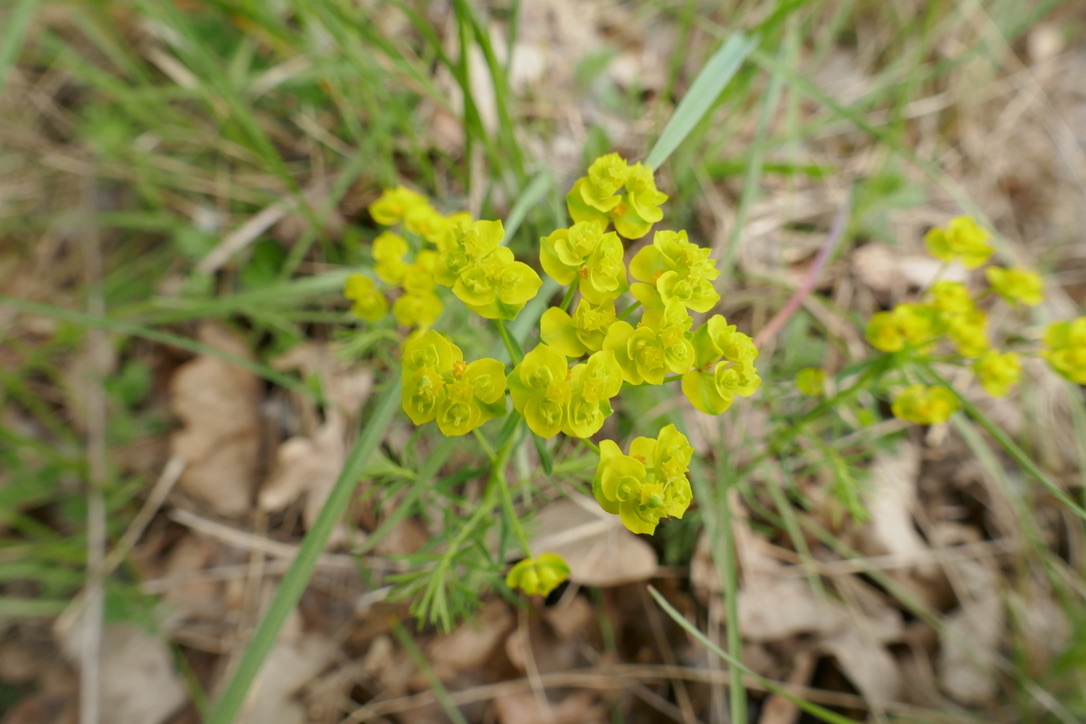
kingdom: Plantae
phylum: Tracheophyta
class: Magnoliopsida
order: Malpighiales
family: Euphorbiaceae
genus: Euphorbia
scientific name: Euphorbia cyparissias
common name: Cypress spurge
